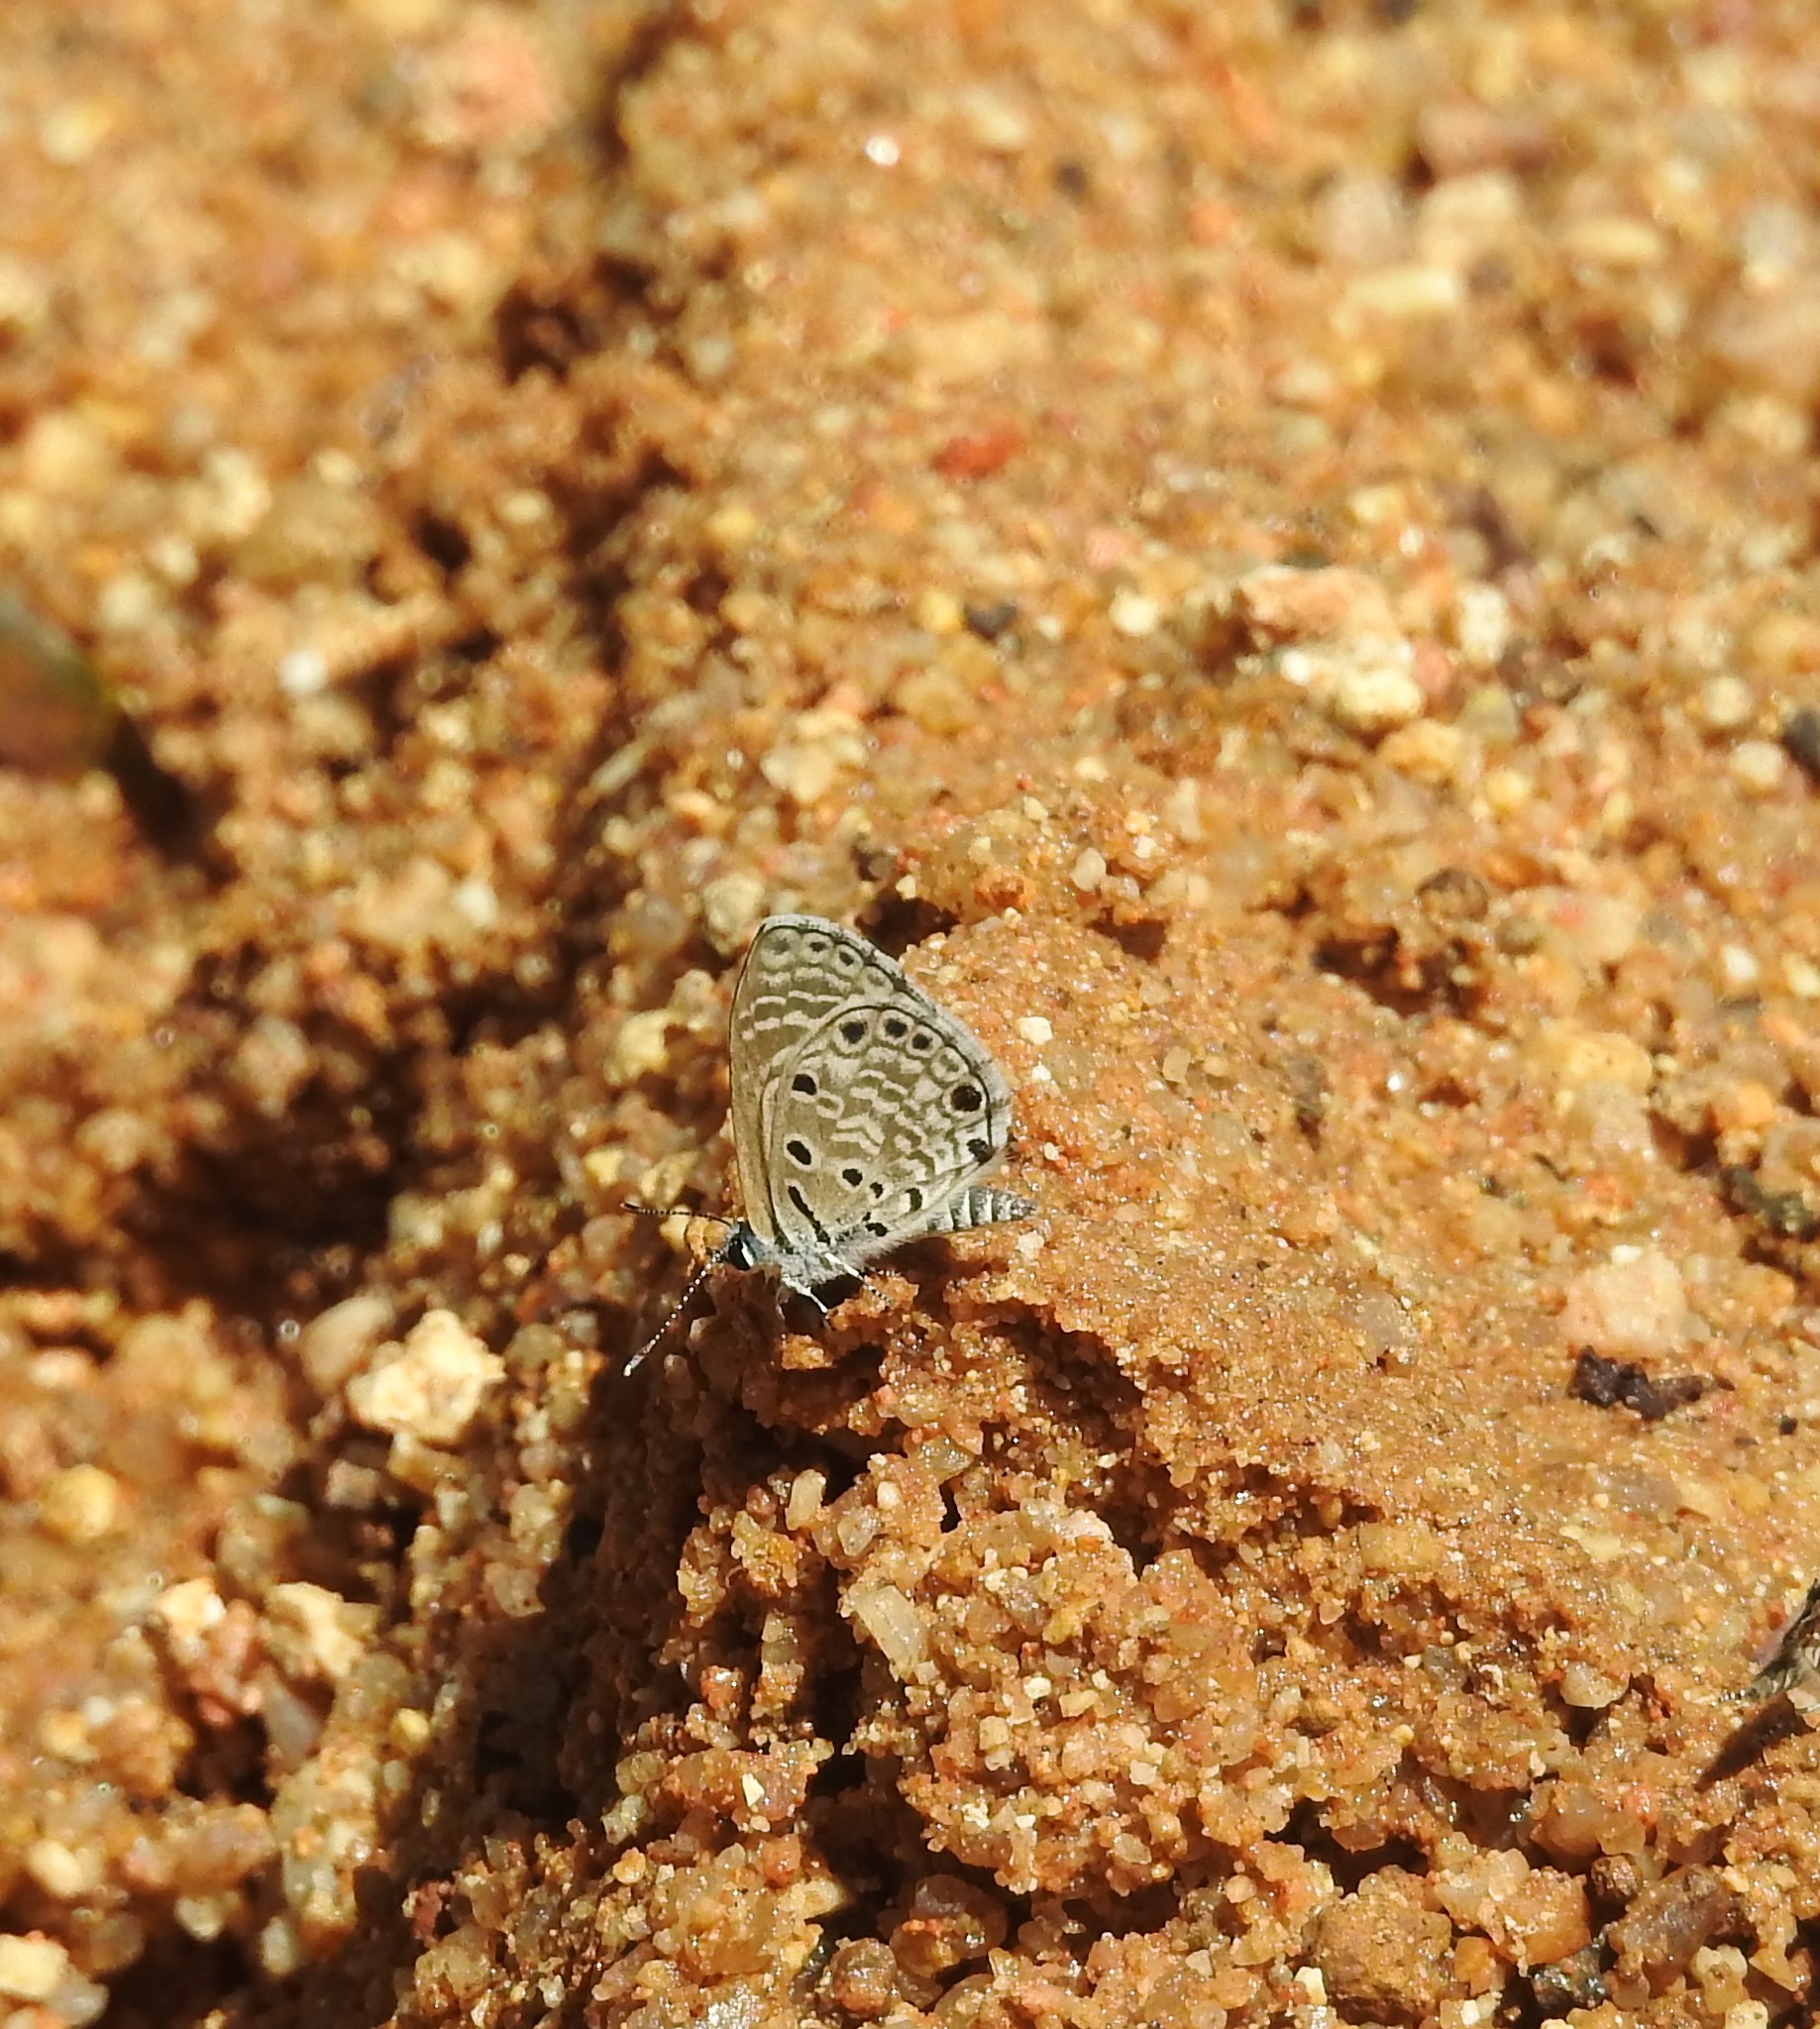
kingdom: Animalia
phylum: Arthropoda
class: Insecta
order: Lepidoptera
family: Lycaenidae
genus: Azanus
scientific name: Azanus jesous
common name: African babul blue
